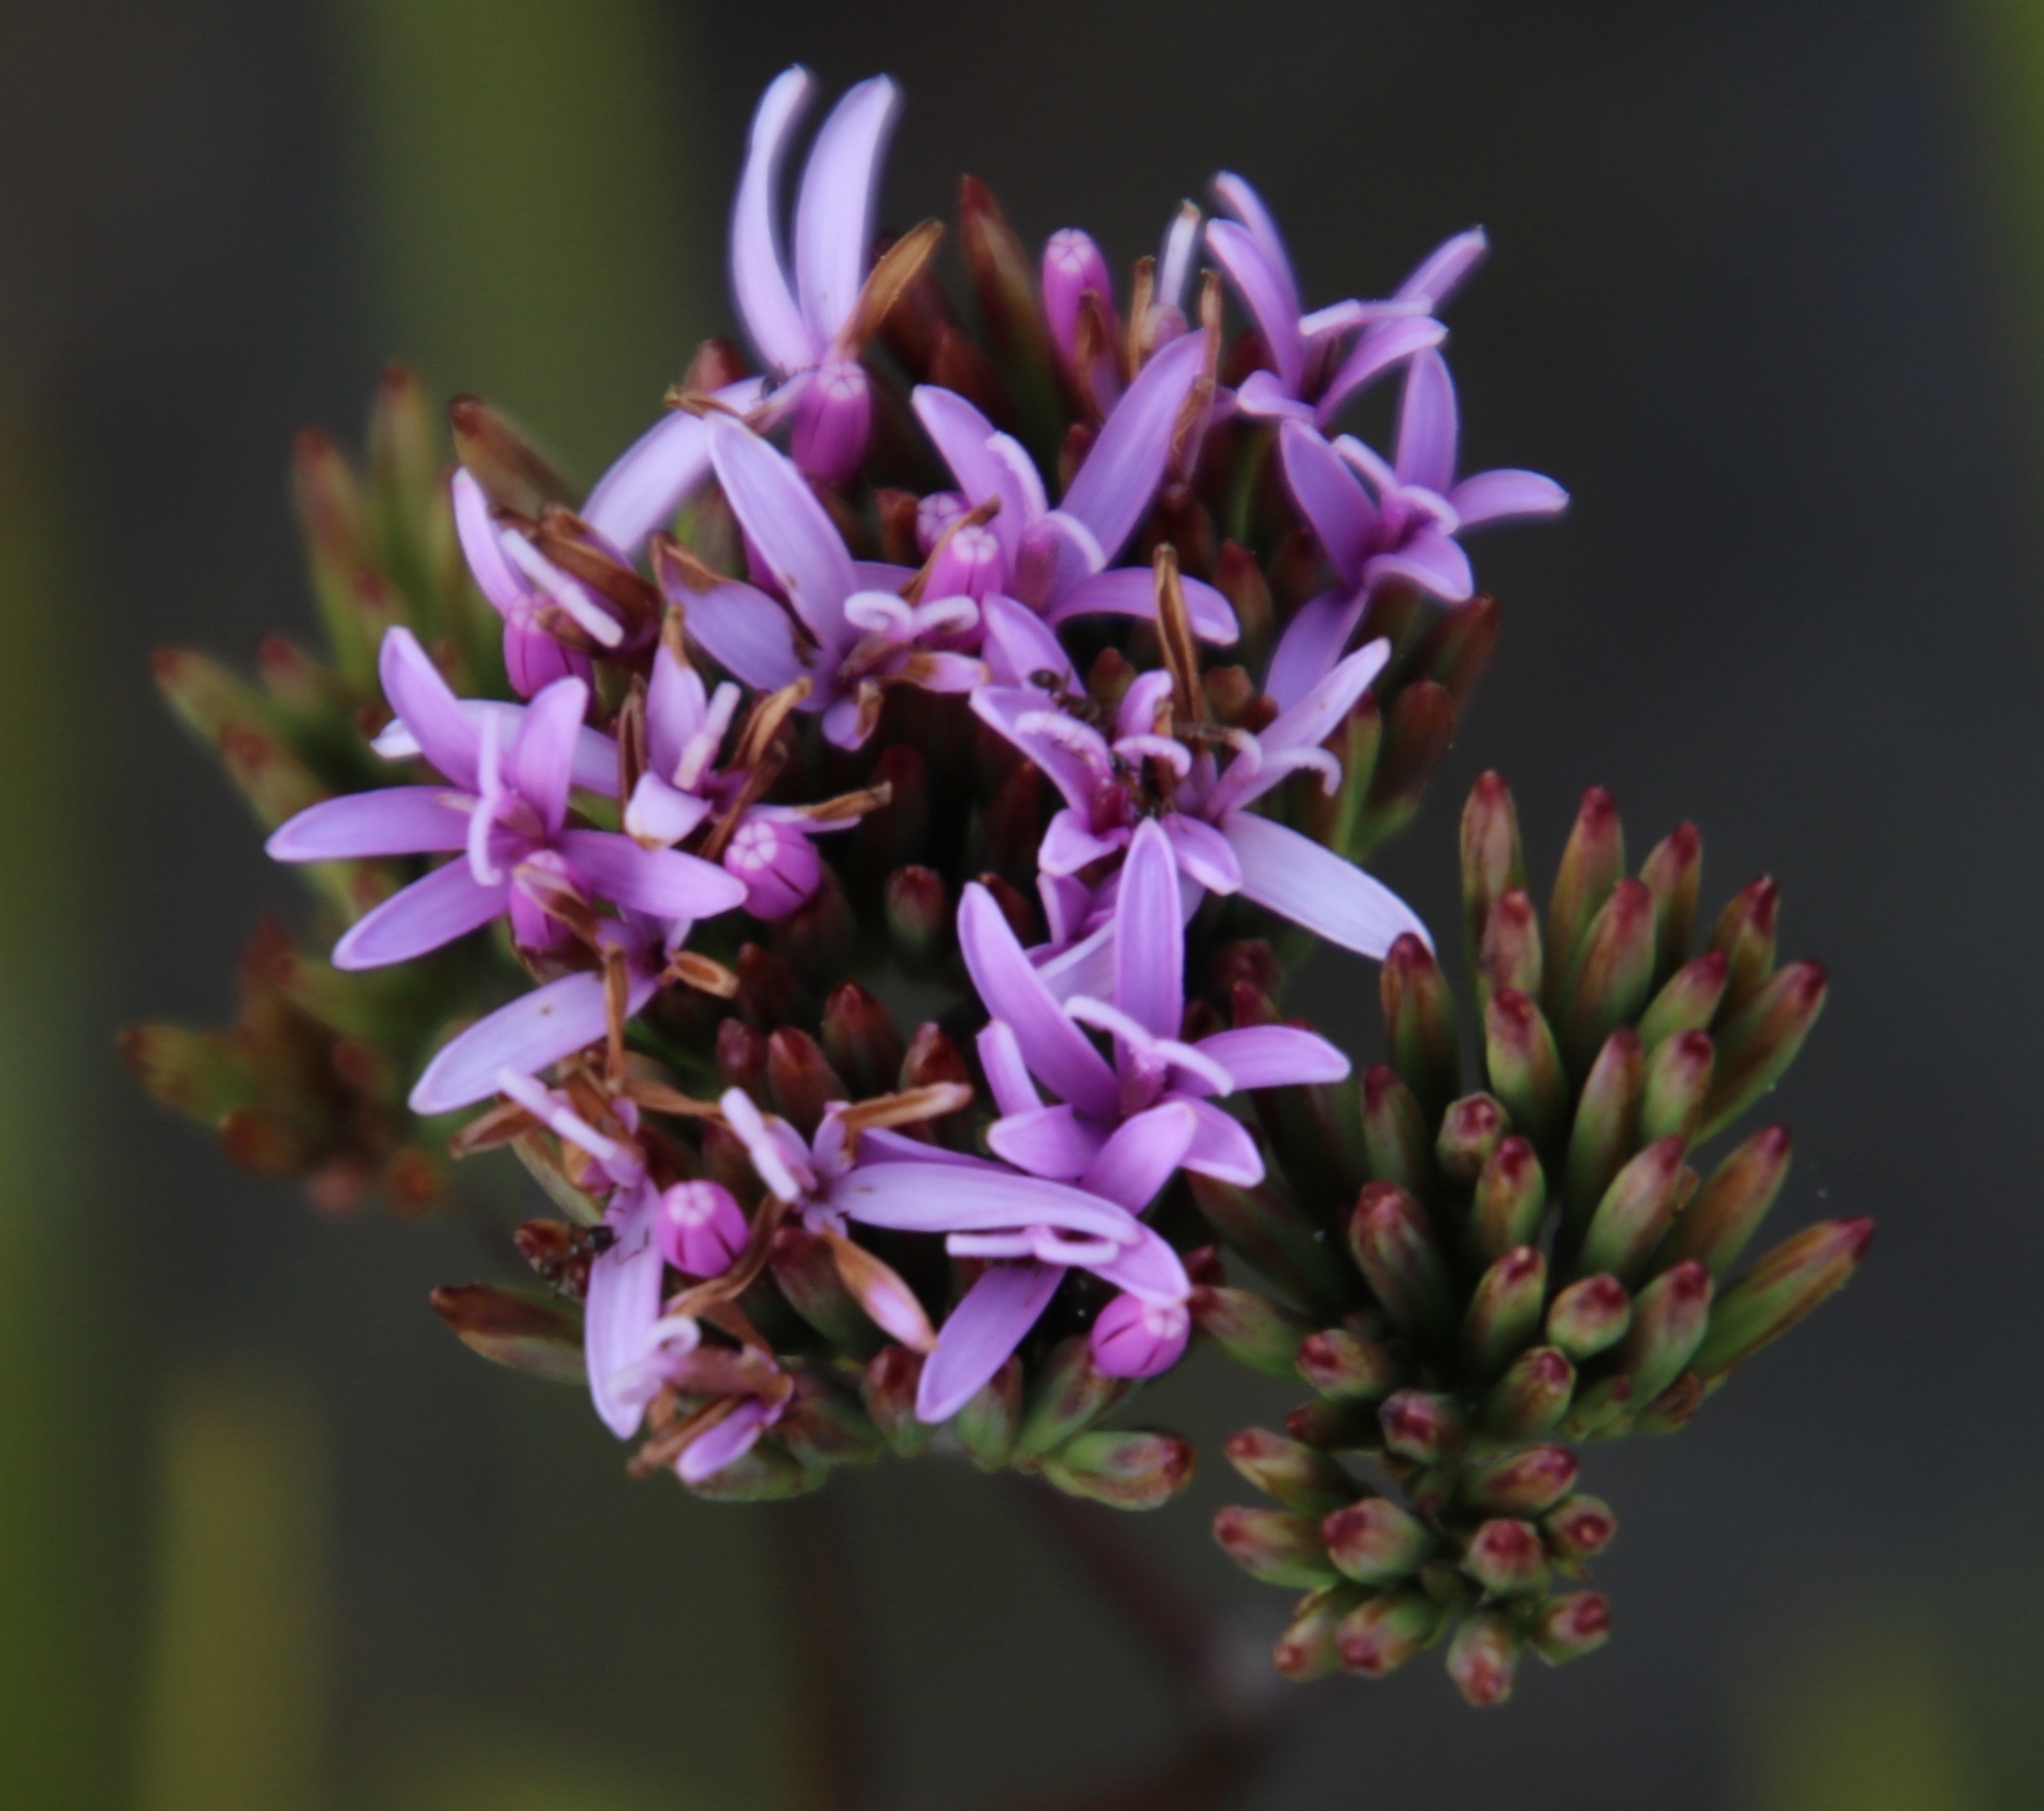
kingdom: Plantae
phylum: Tracheophyta
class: Magnoliopsida
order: Asterales
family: Asteraceae
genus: Corymbium
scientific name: Corymbium glabrum
